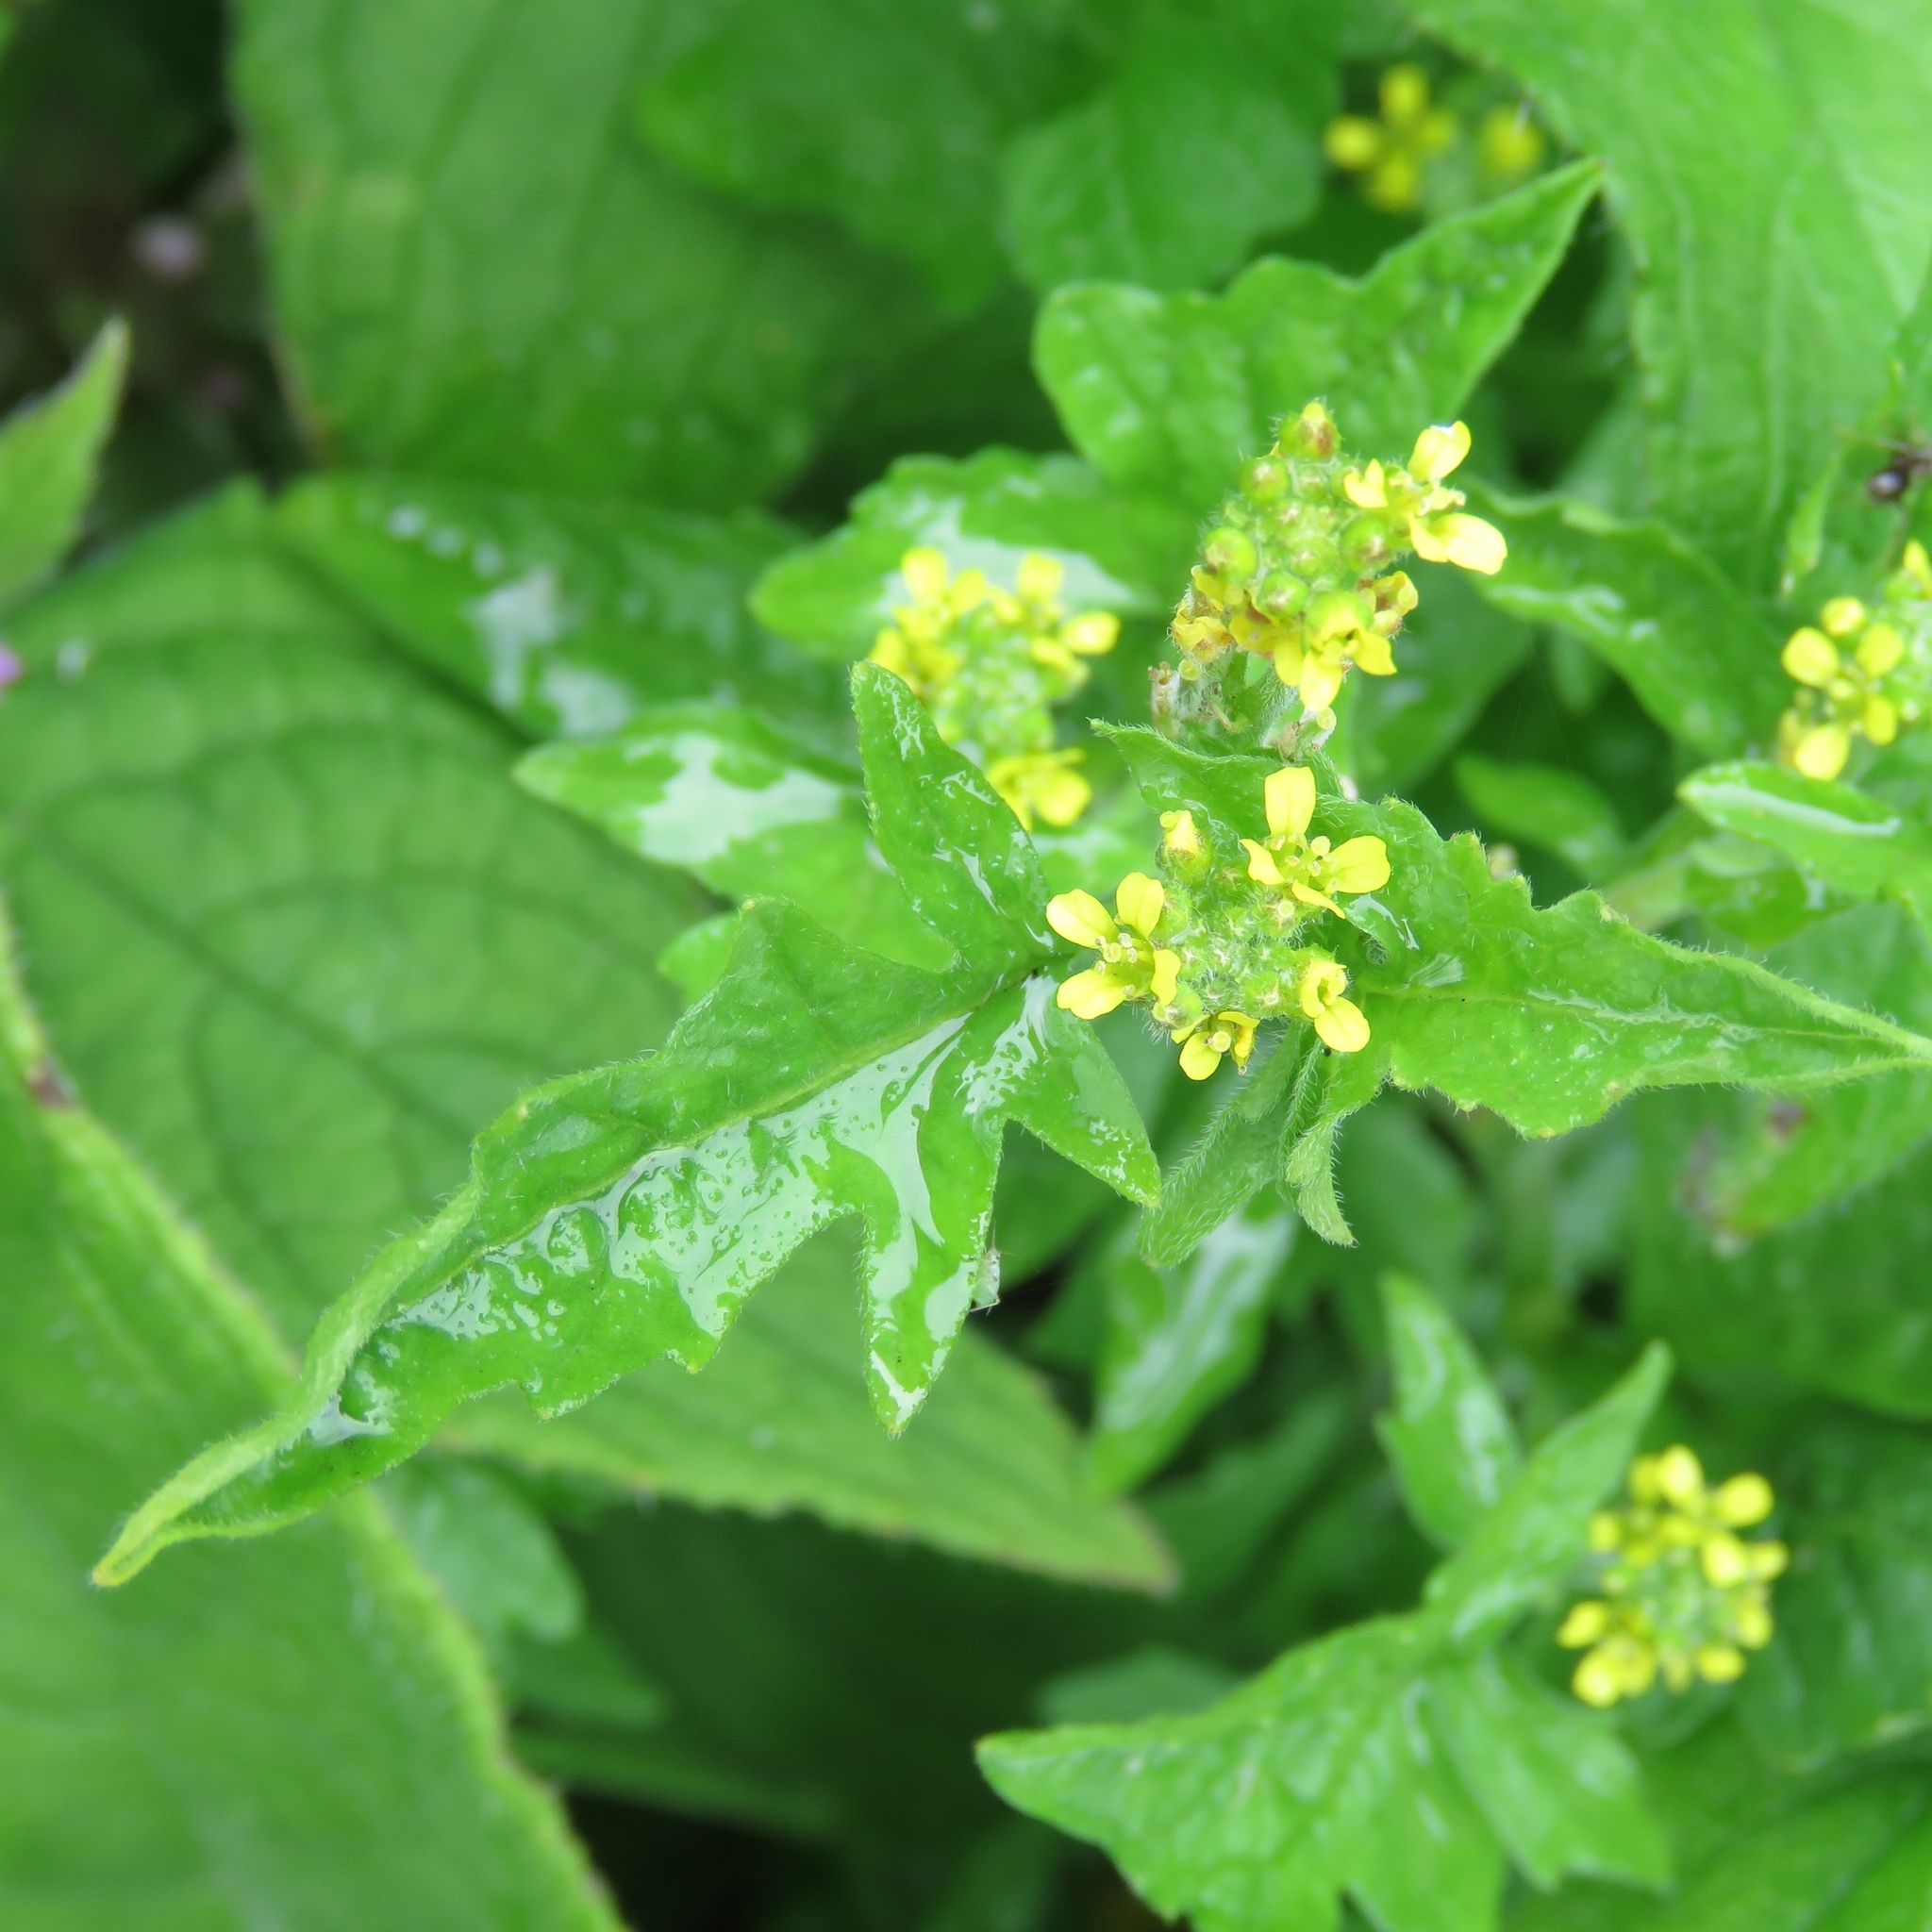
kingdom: Plantae
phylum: Tracheophyta
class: Magnoliopsida
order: Brassicales
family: Brassicaceae
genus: Sisymbrium
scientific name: Sisymbrium officinale
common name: Hedge mustard
